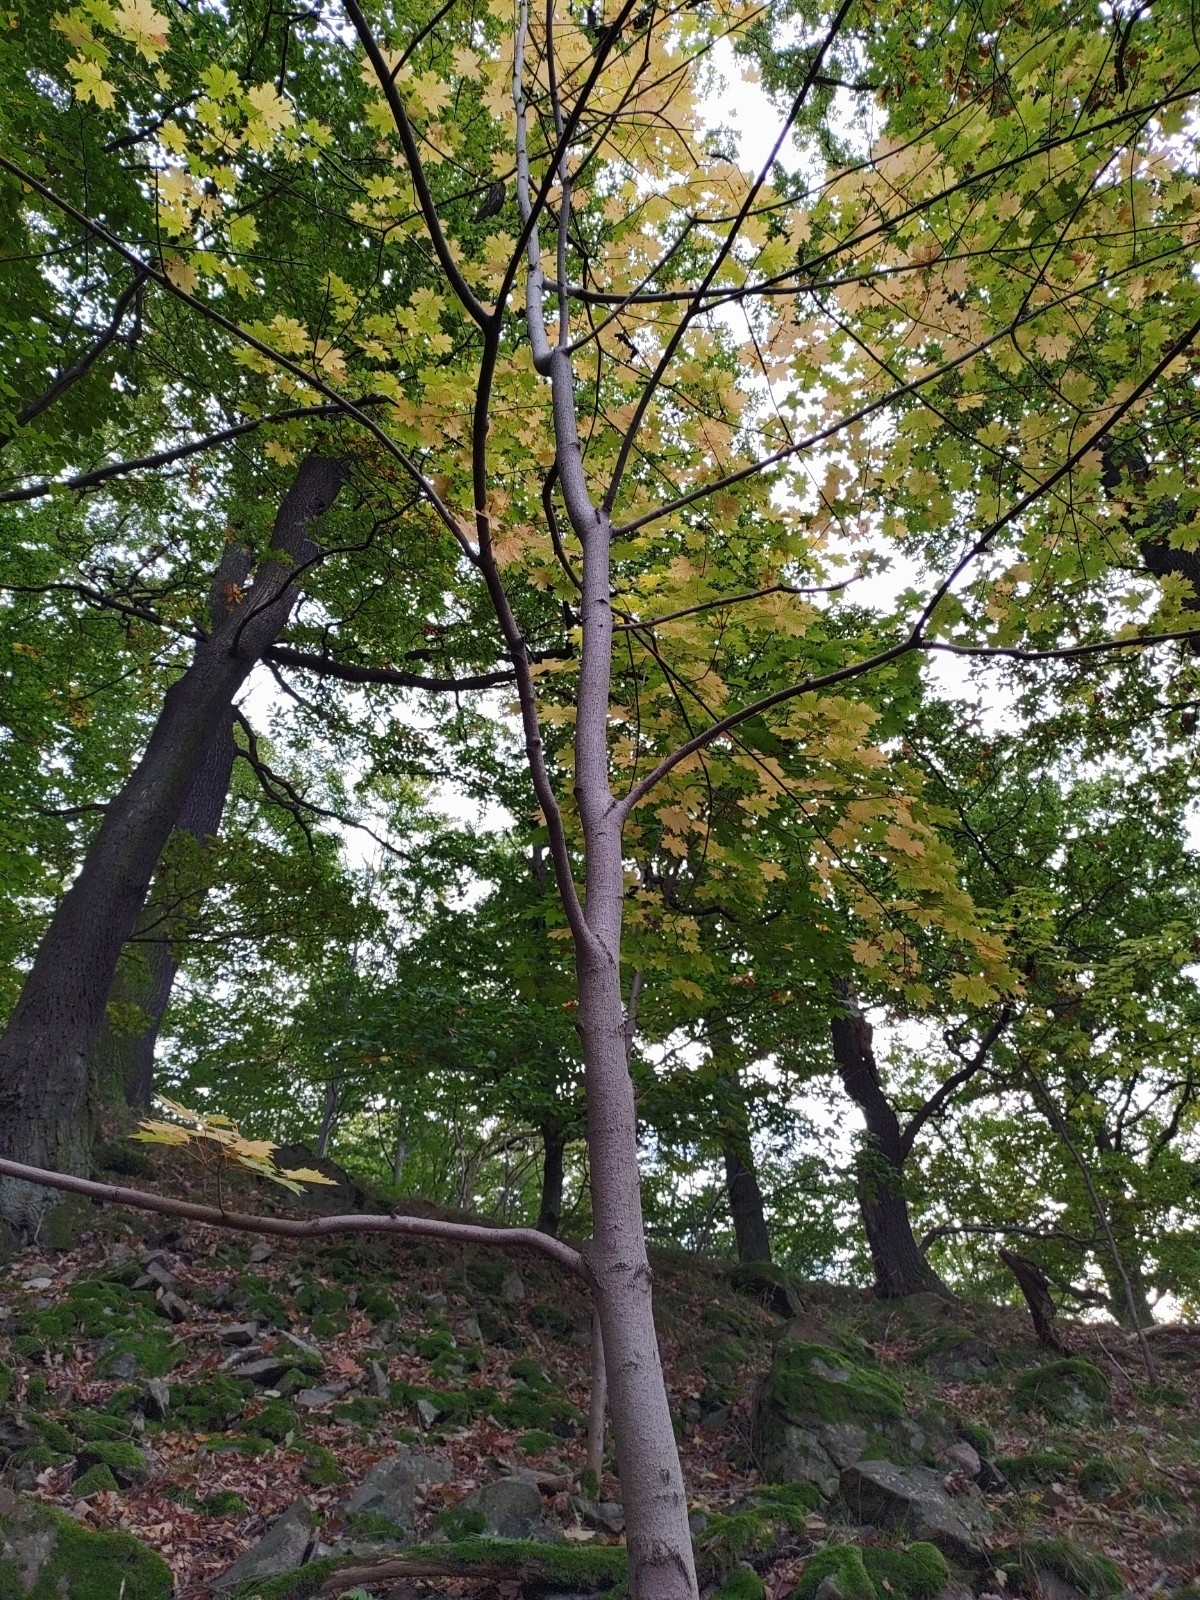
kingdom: Plantae
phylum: Tracheophyta
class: Magnoliopsida
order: Sapindales
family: Sapindaceae
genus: Acer
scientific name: Acer platanoides
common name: Norway maple
